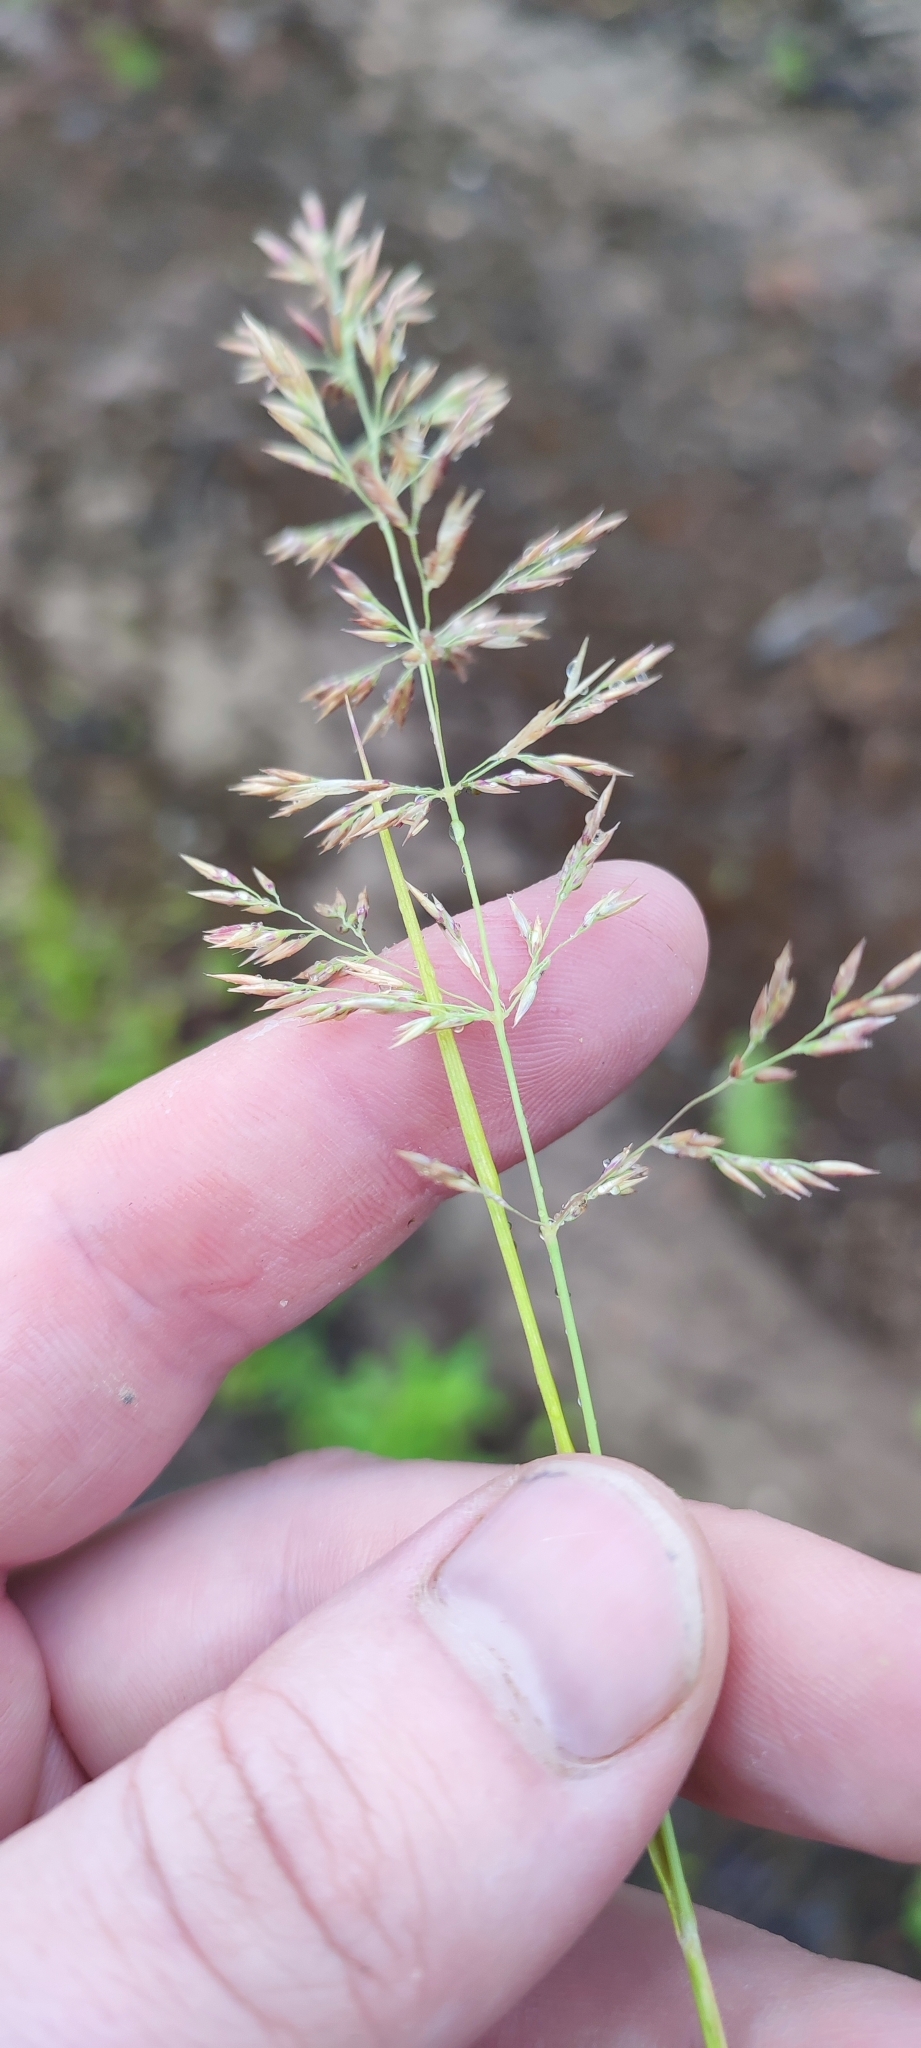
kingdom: Plantae
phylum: Tracheophyta
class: Liliopsida
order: Poales
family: Poaceae
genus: Calamagrostis
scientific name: Calamagrostis purpurea
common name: Scandinavian small-reed
